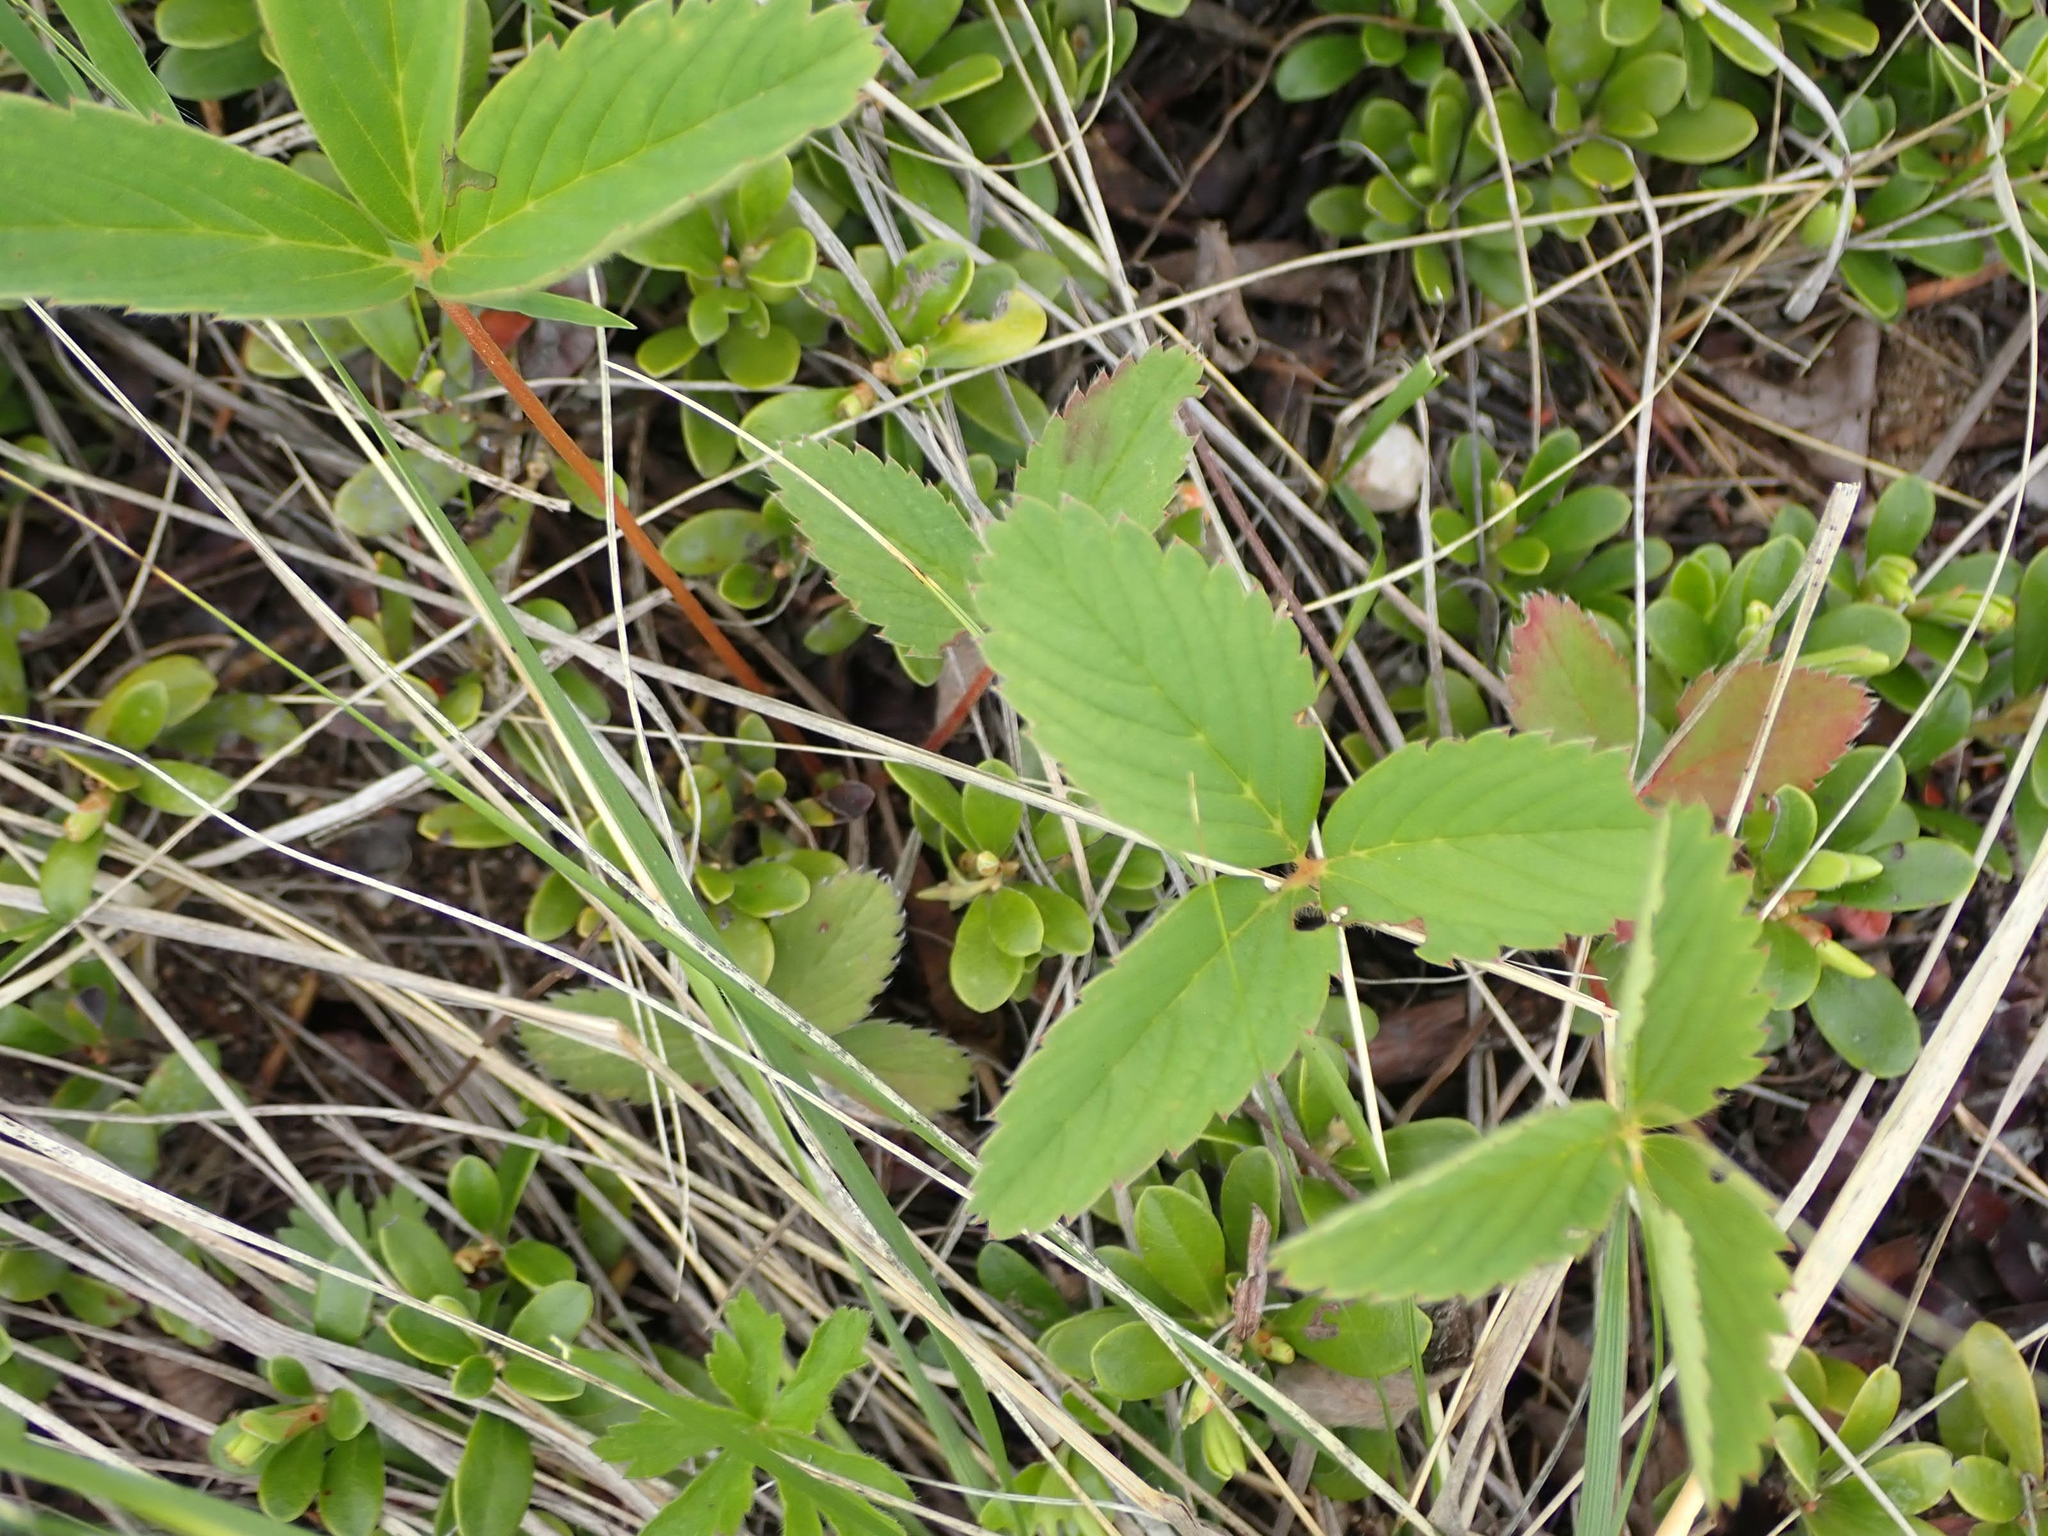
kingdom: Plantae
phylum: Tracheophyta
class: Magnoliopsida
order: Rosales
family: Rosaceae
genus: Fragaria
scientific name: Fragaria virginiana
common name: Thickleaved wild strawberry
